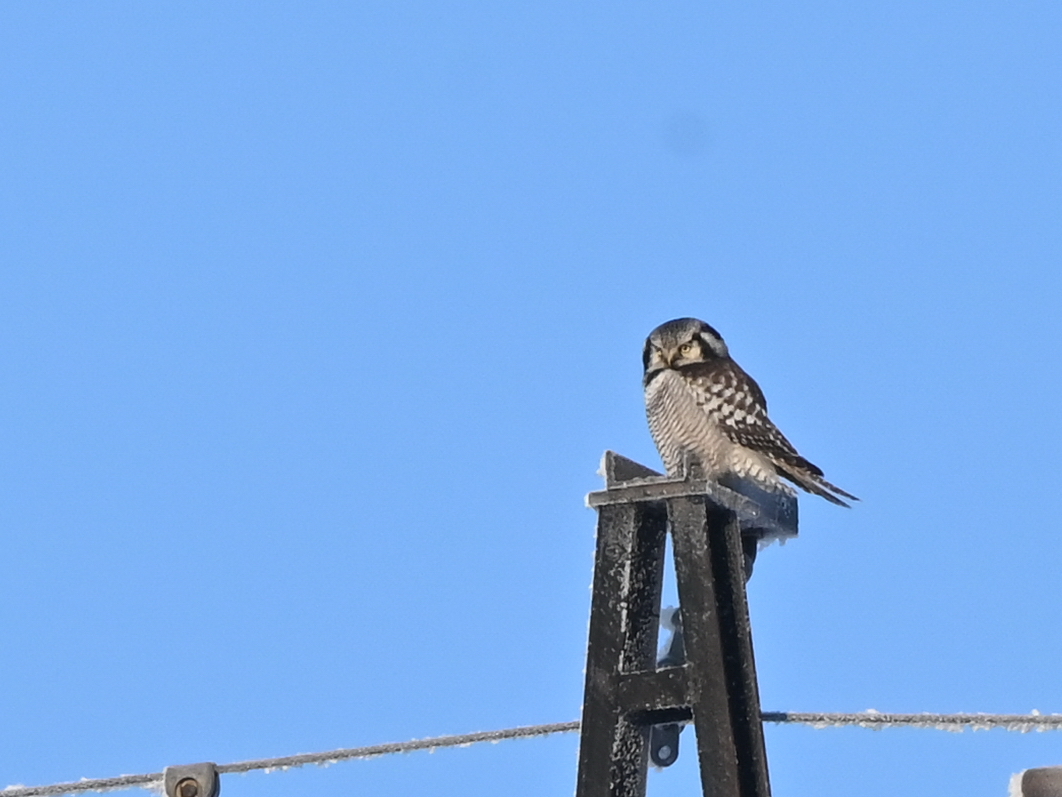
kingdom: Animalia
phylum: Chordata
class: Aves
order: Strigiformes
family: Strigidae
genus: Surnia
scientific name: Surnia ulula
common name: Northern hawk-owl
